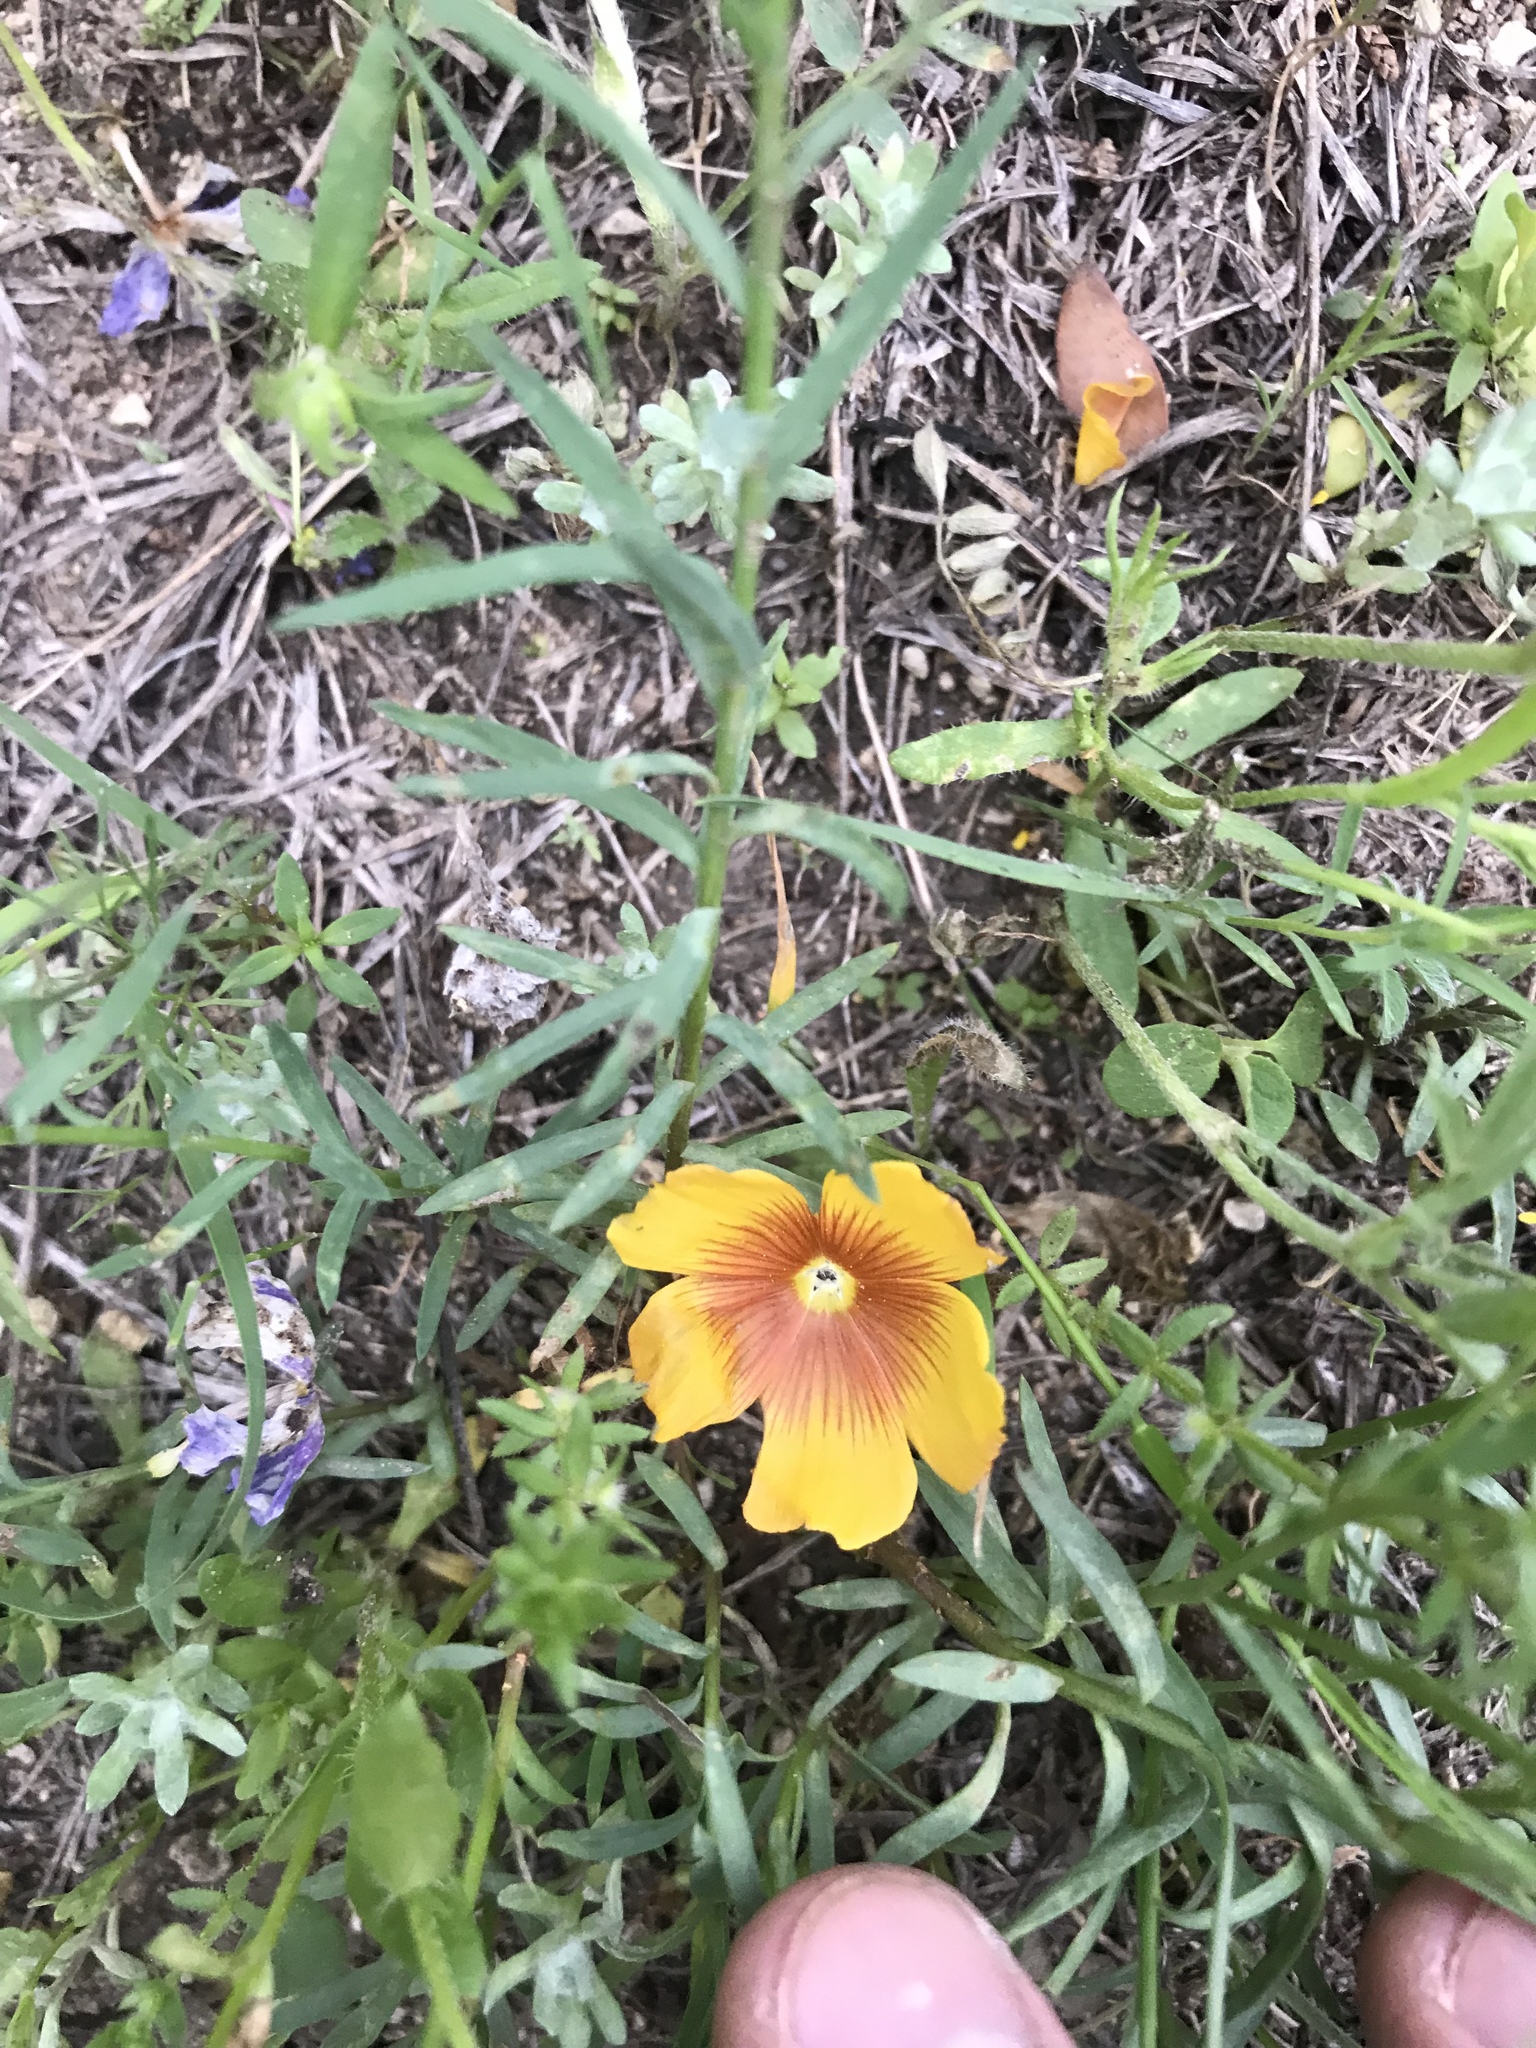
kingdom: Plantae
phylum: Tracheophyta
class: Magnoliopsida
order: Malpighiales
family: Linaceae
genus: Linum
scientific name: Linum berlandieri
